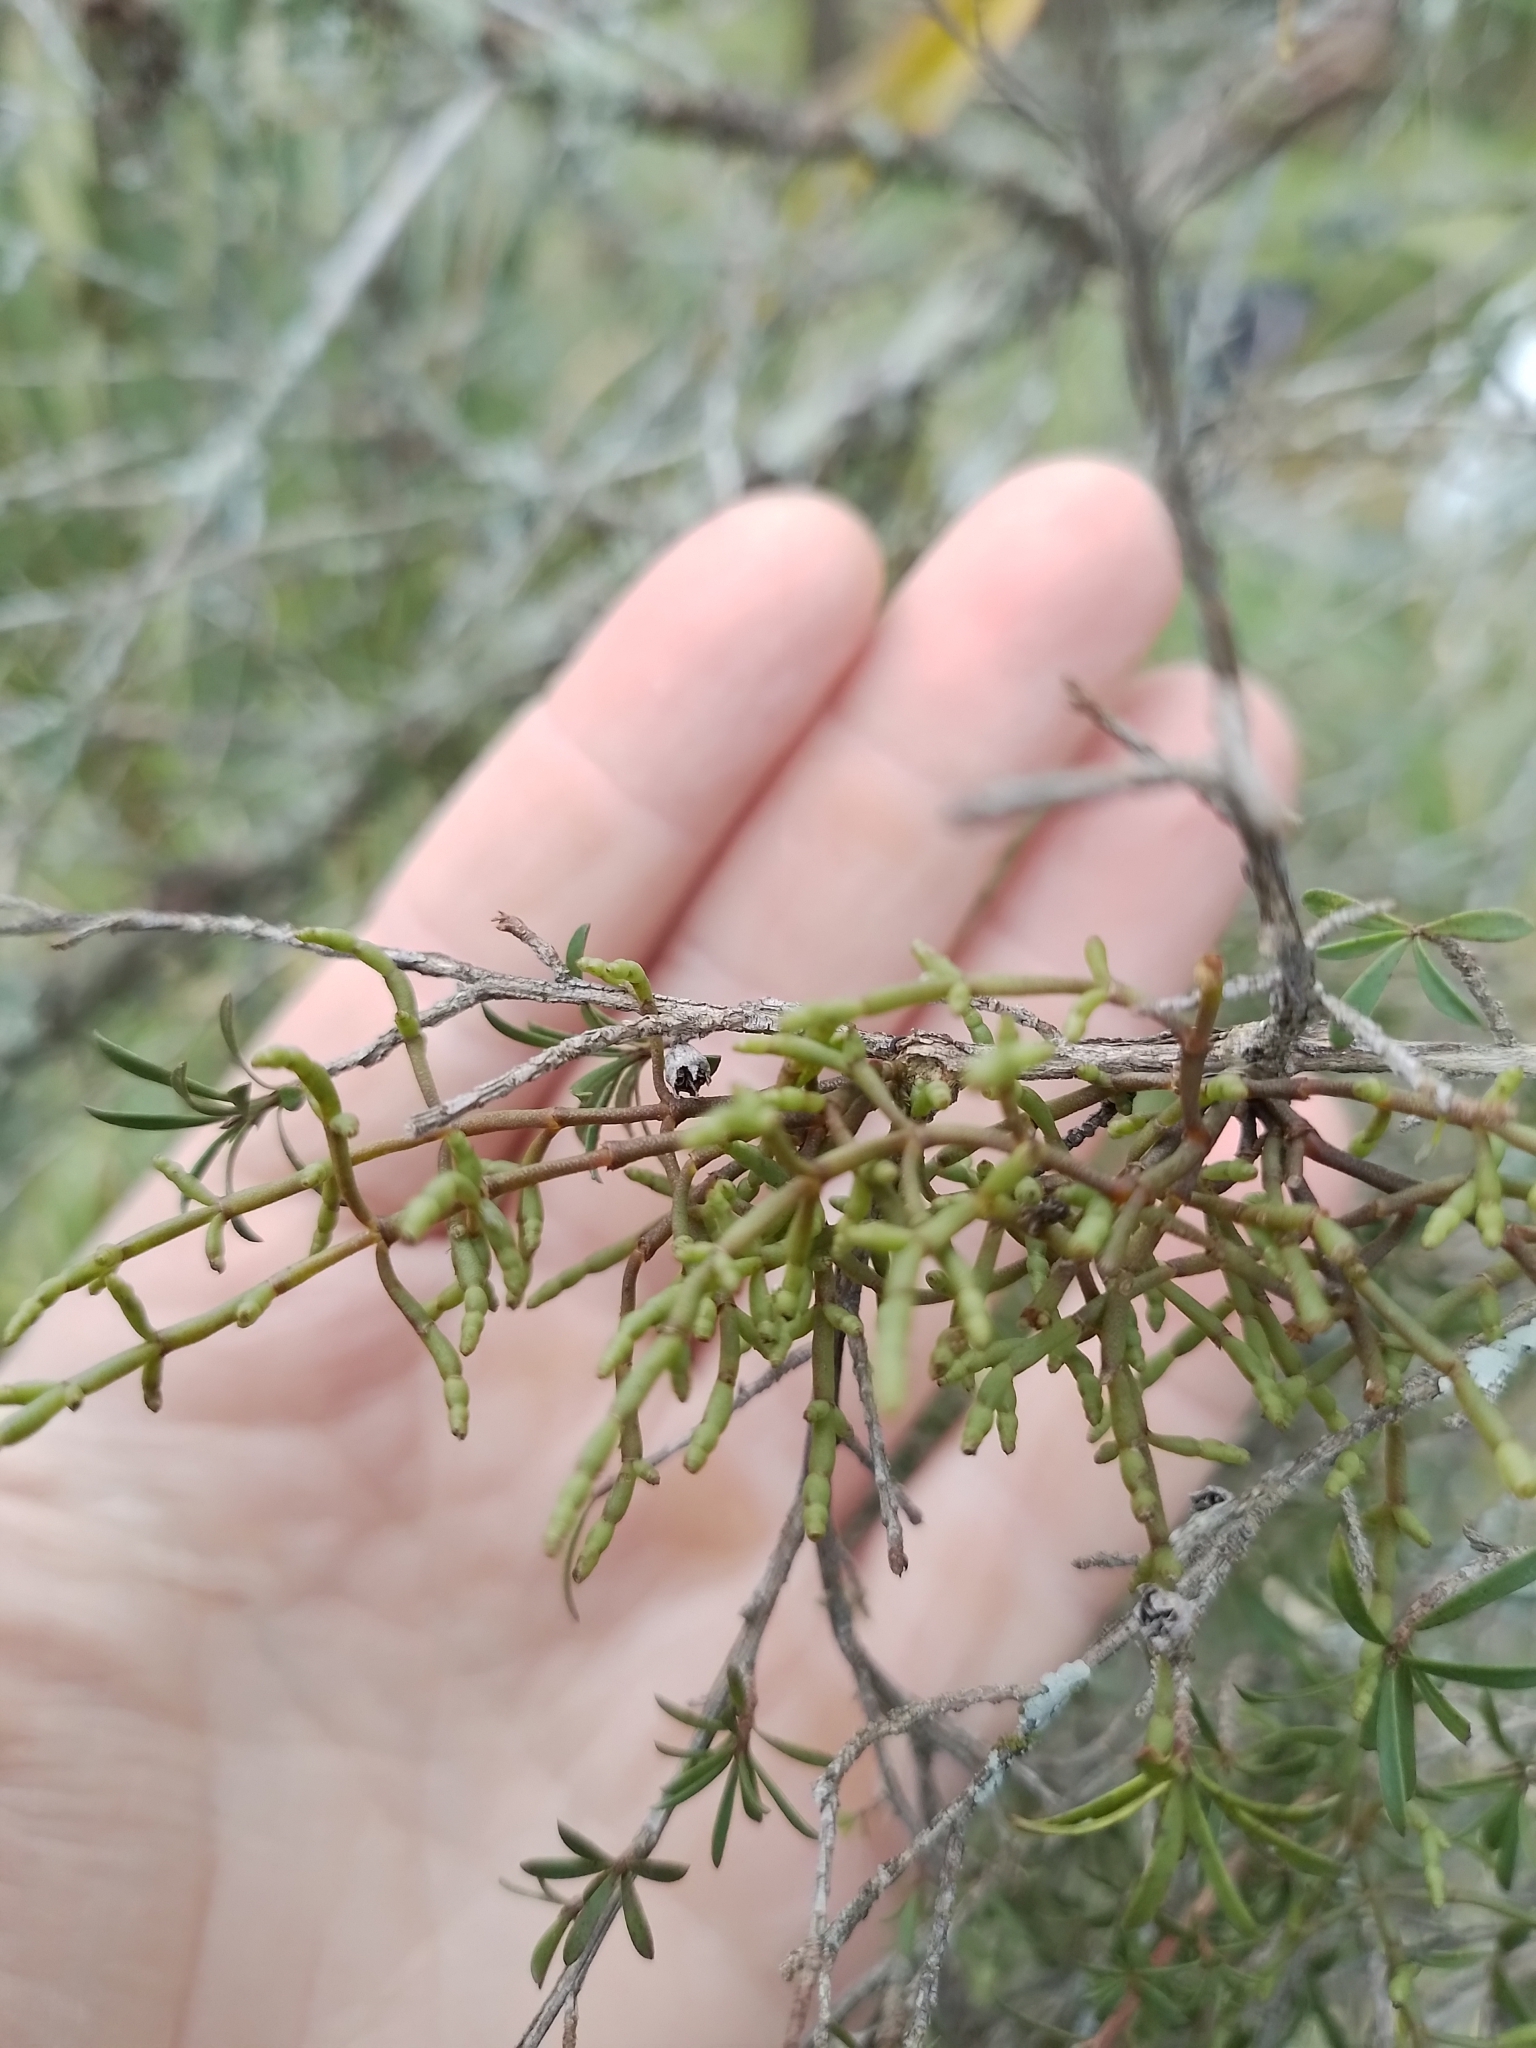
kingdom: Plantae
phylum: Tracheophyta
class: Magnoliopsida
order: Santalales
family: Viscaceae
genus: Korthalsella
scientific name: Korthalsella salicornioides
